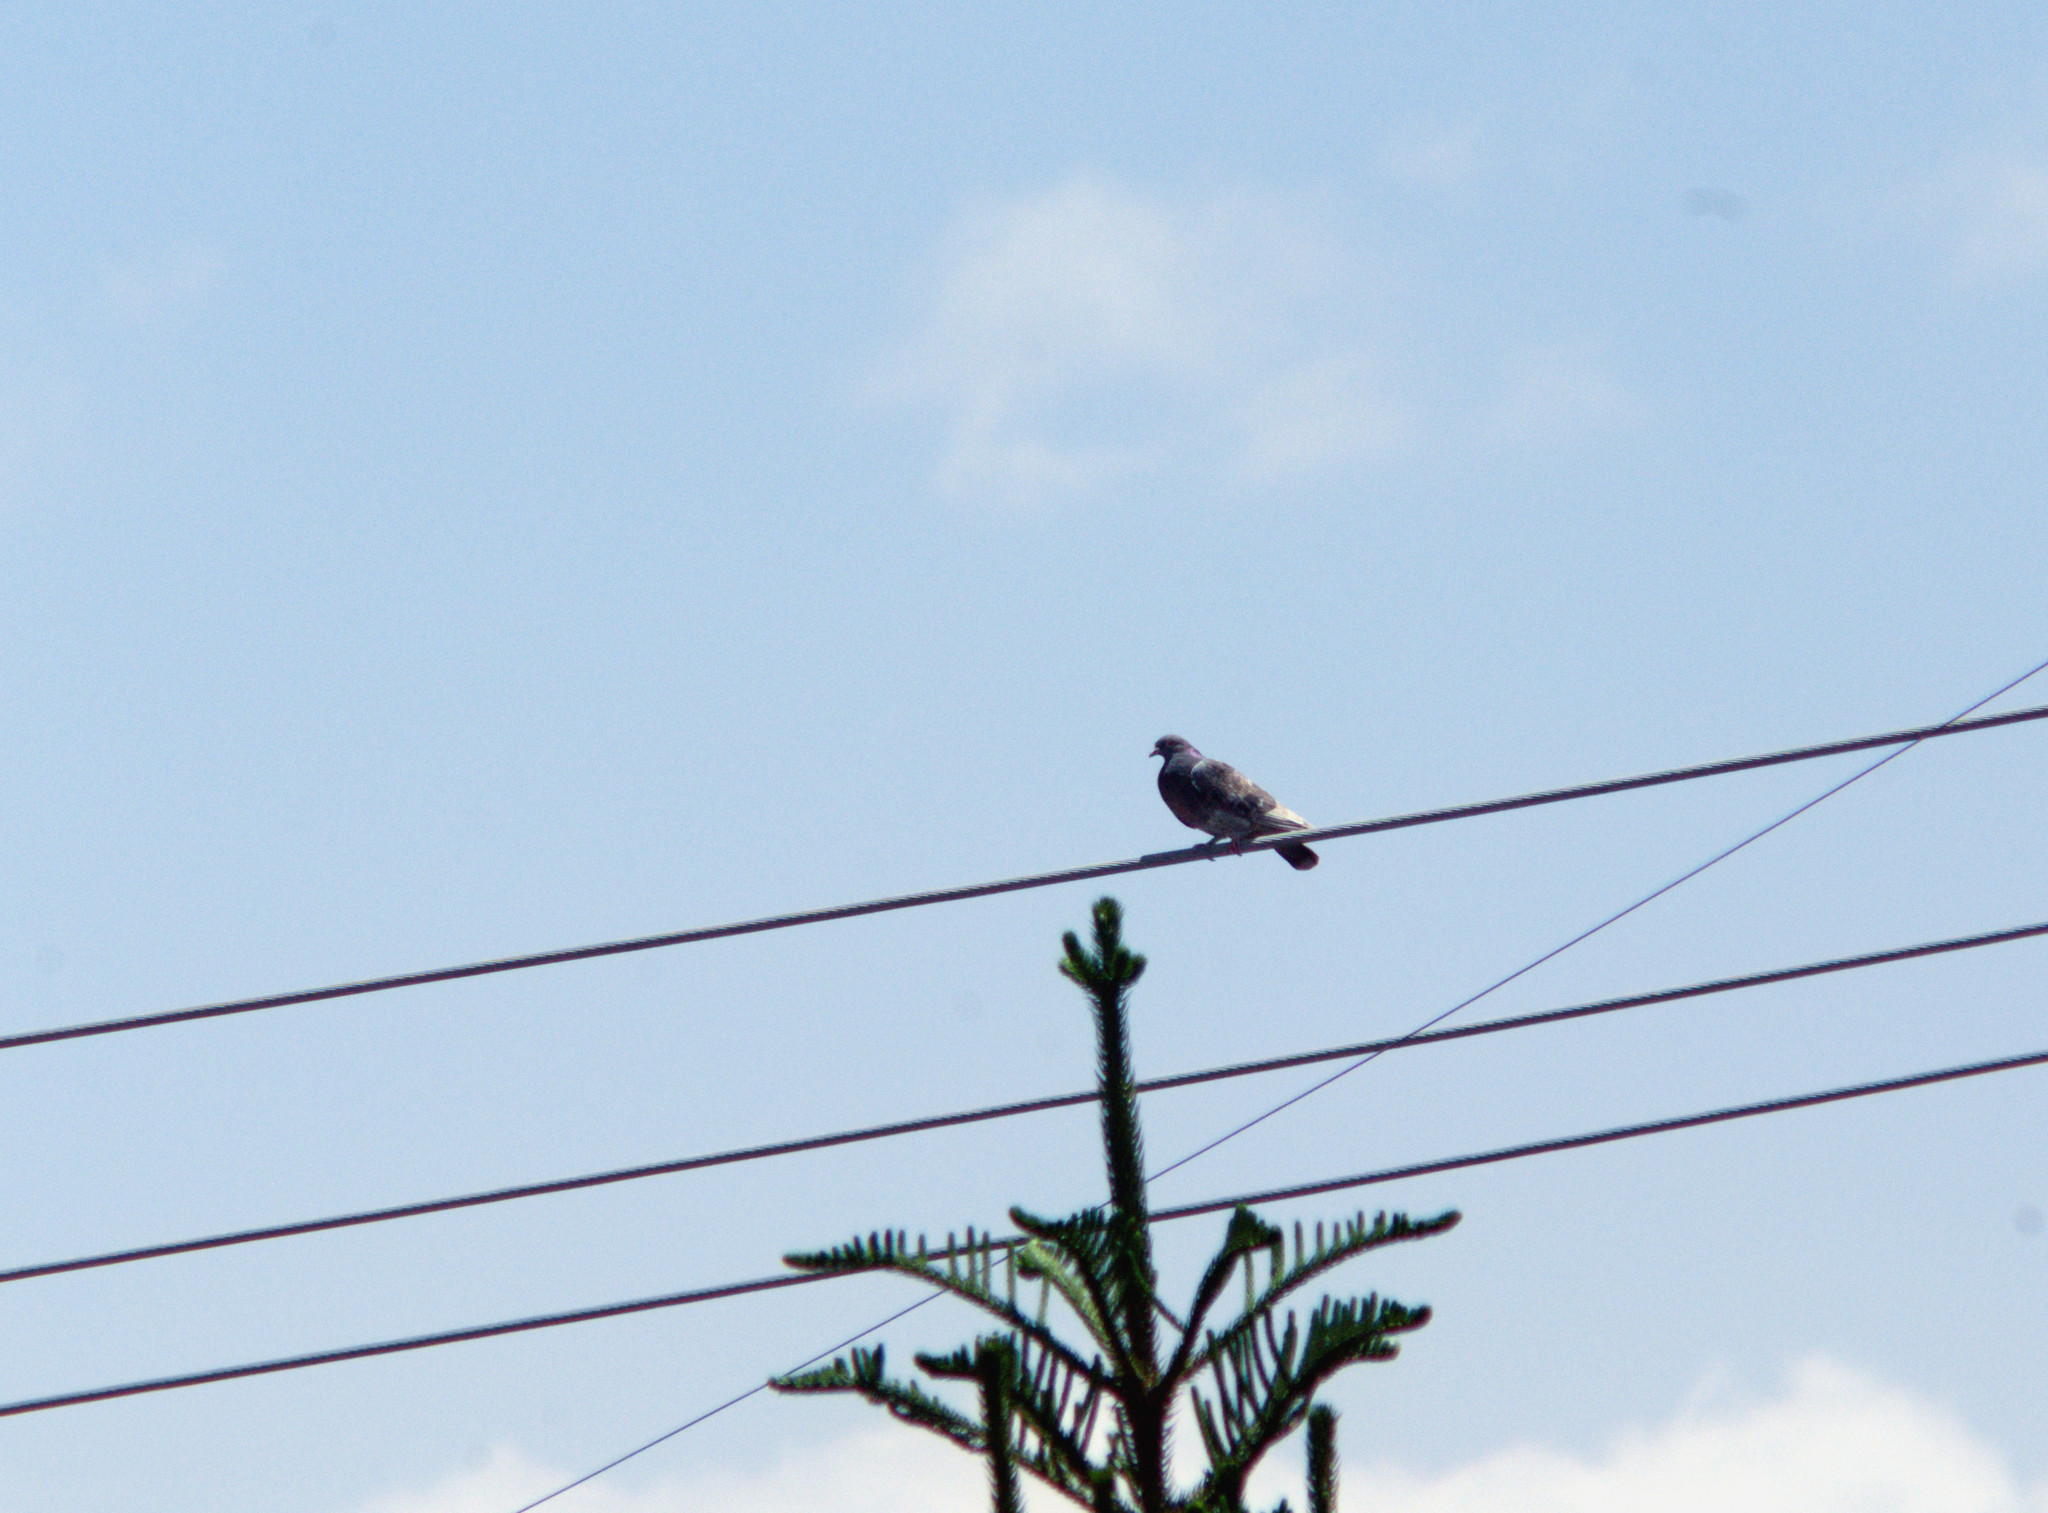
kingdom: Animalia
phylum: Chordata
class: Aves
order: Columbiformes
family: Columbidae
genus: Columba
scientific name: Columba livia
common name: Rock pigeon
